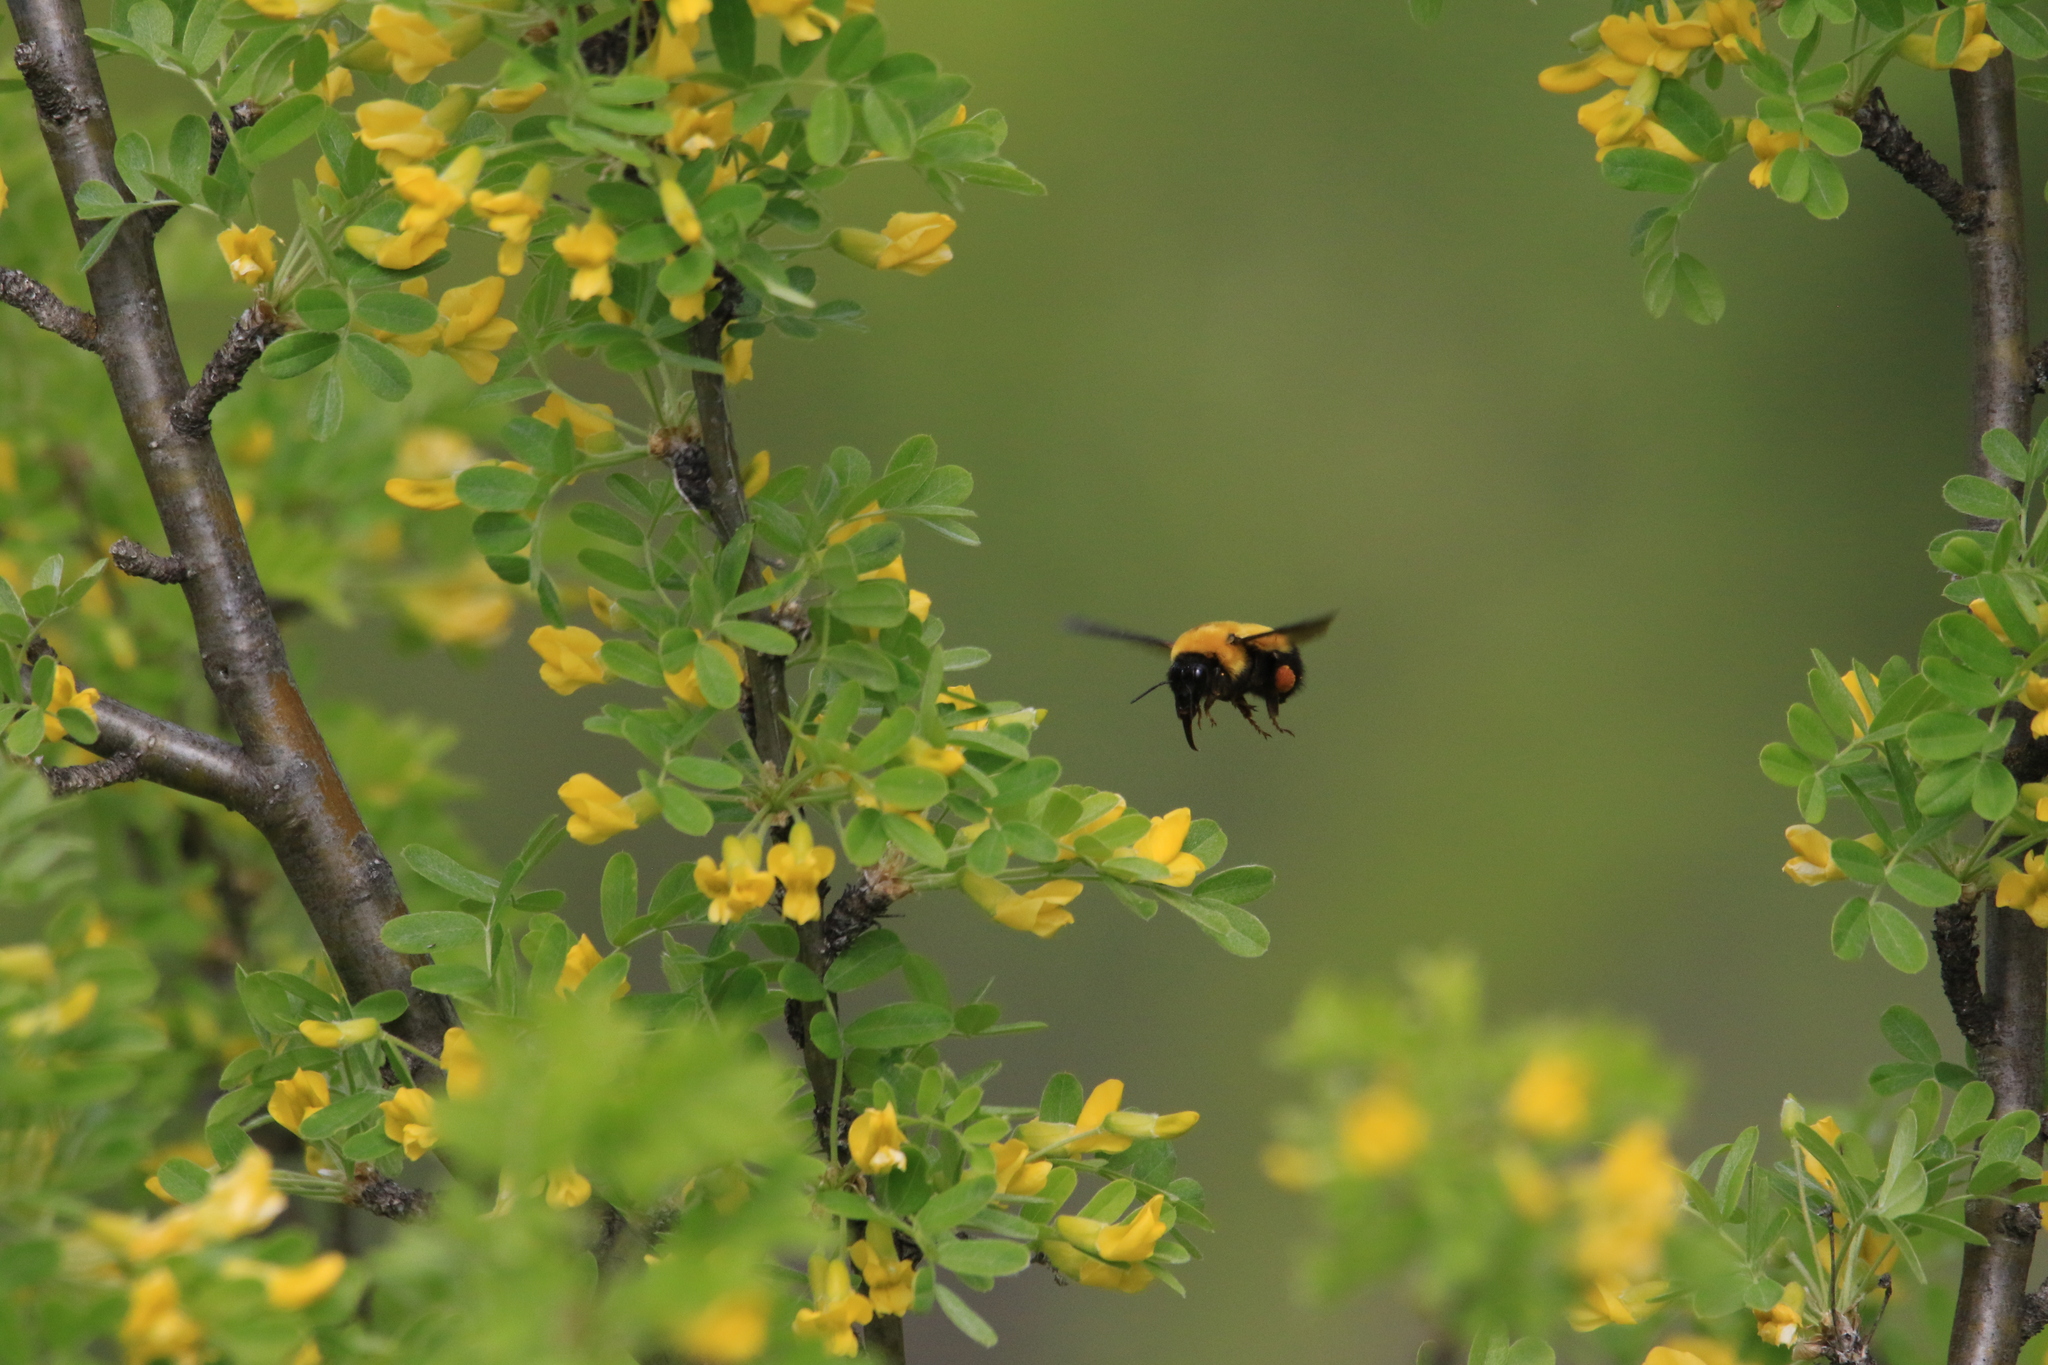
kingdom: Animalia
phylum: Arthropoda
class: Insecta
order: Hymenoptera
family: Apidae
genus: Bombus
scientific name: Bombus melanurus
